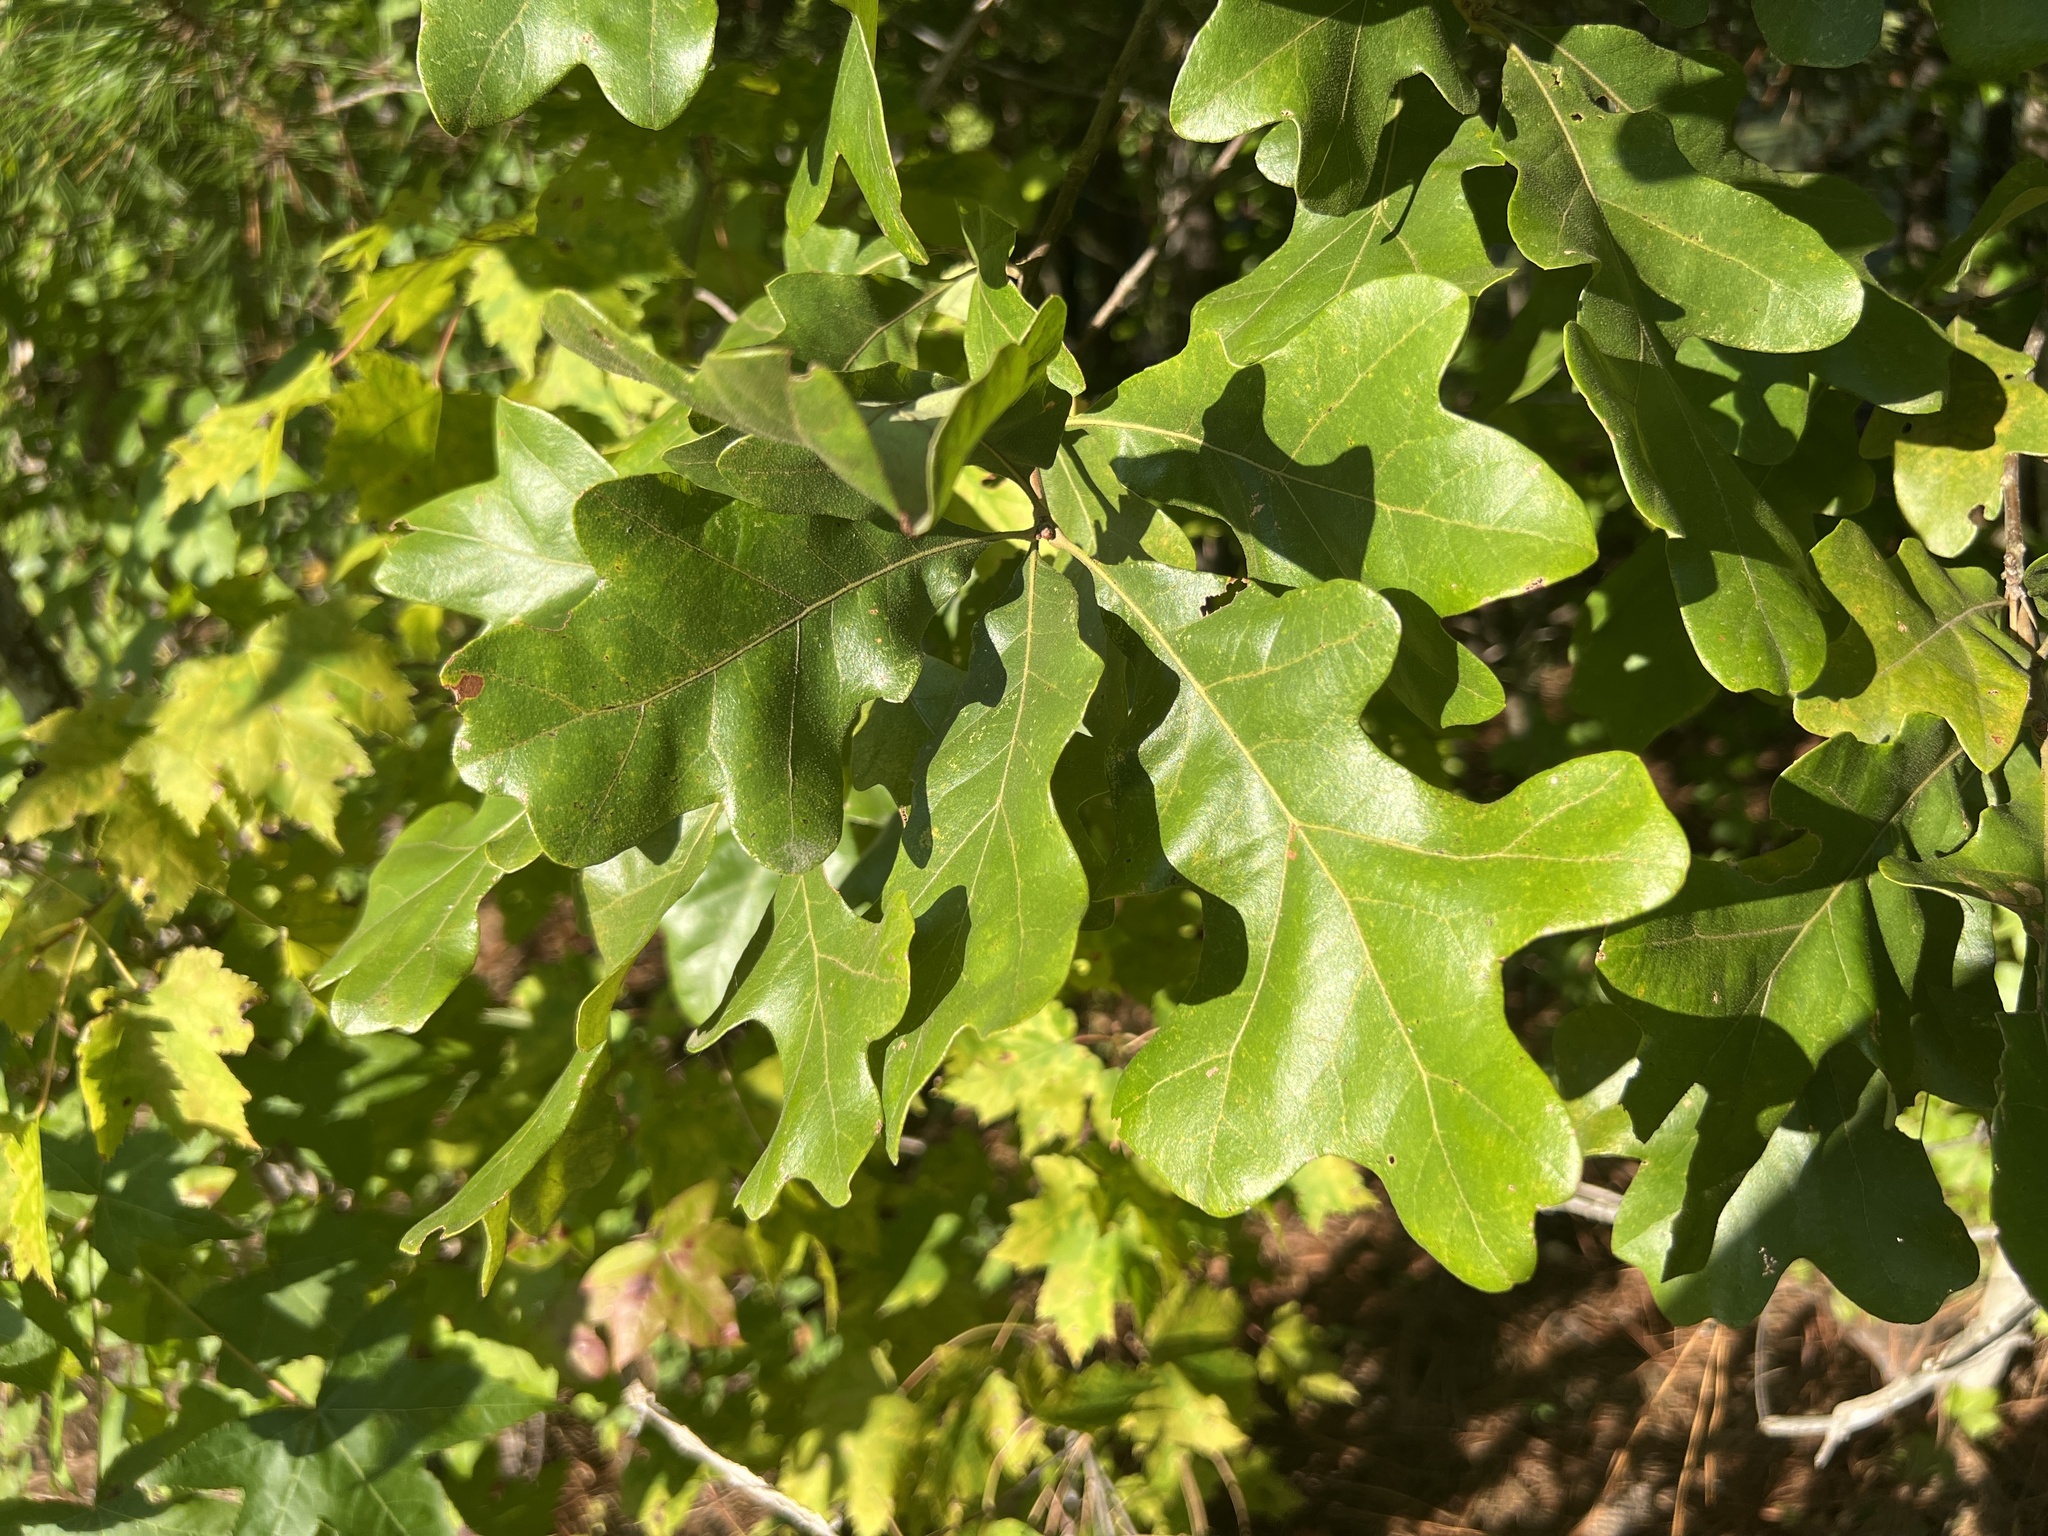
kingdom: Plantae
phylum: Tracheophyta
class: Magnoliopsida
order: Fagales
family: Fagaceae
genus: Quercus
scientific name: Quercus stellata
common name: Post oak
